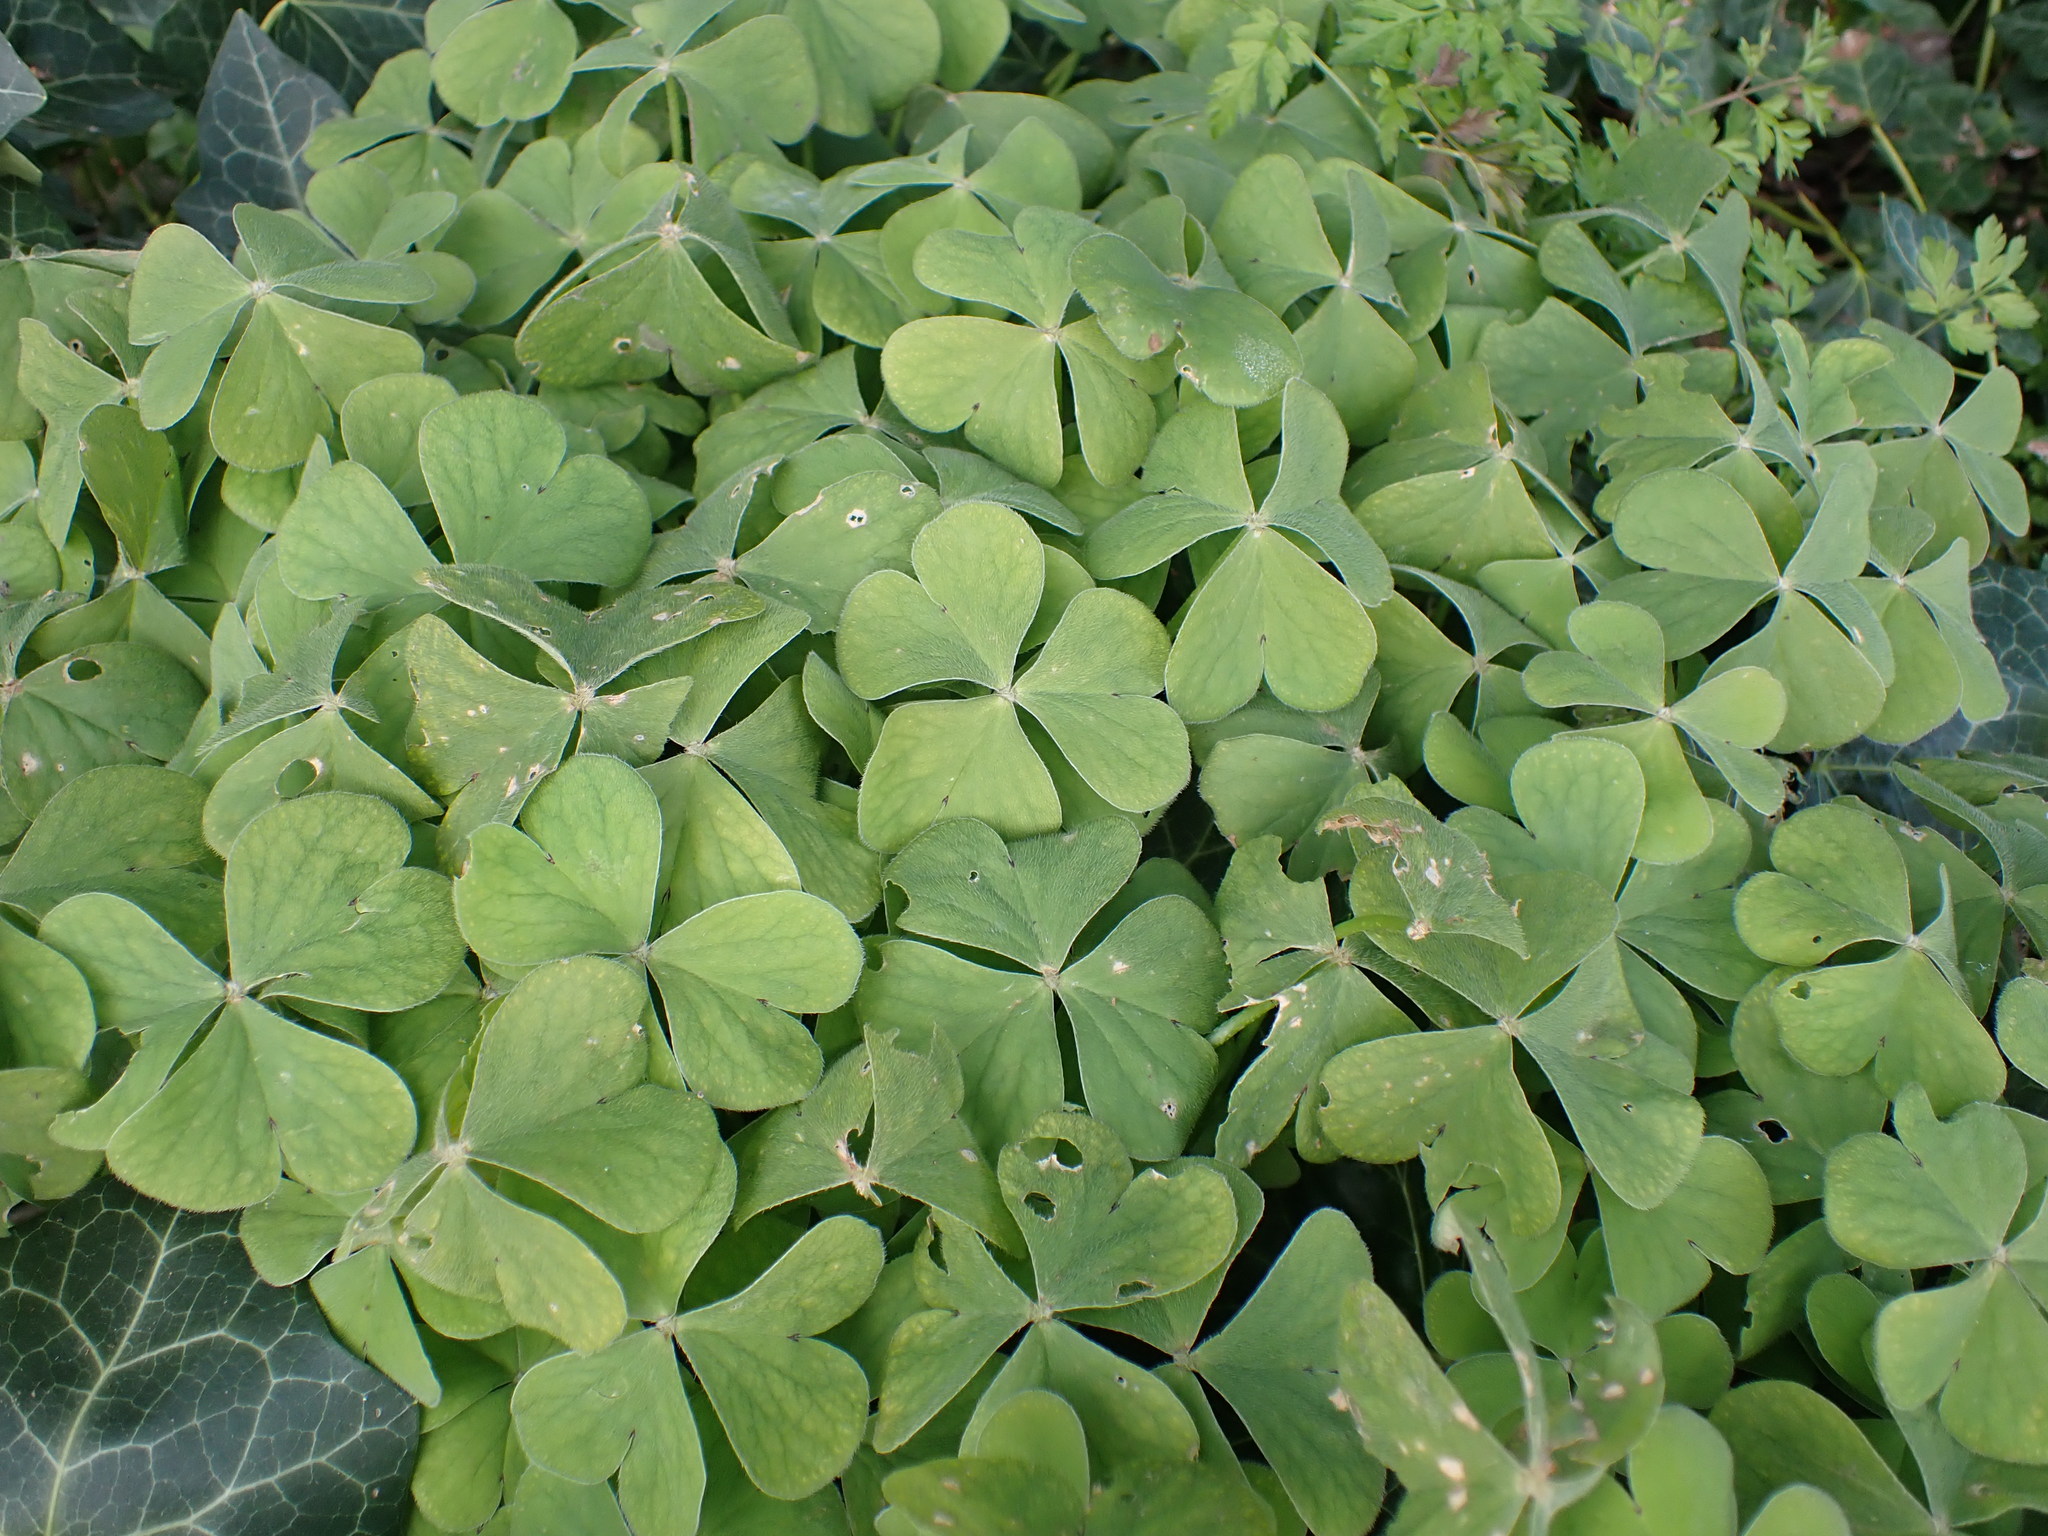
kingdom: Plantae
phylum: Tracheophyta
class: Magnoliopsida
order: Oxalidales
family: Oxalidaceae
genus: Oxalis
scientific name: Oxalis articulata
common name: Pink-sorrel
